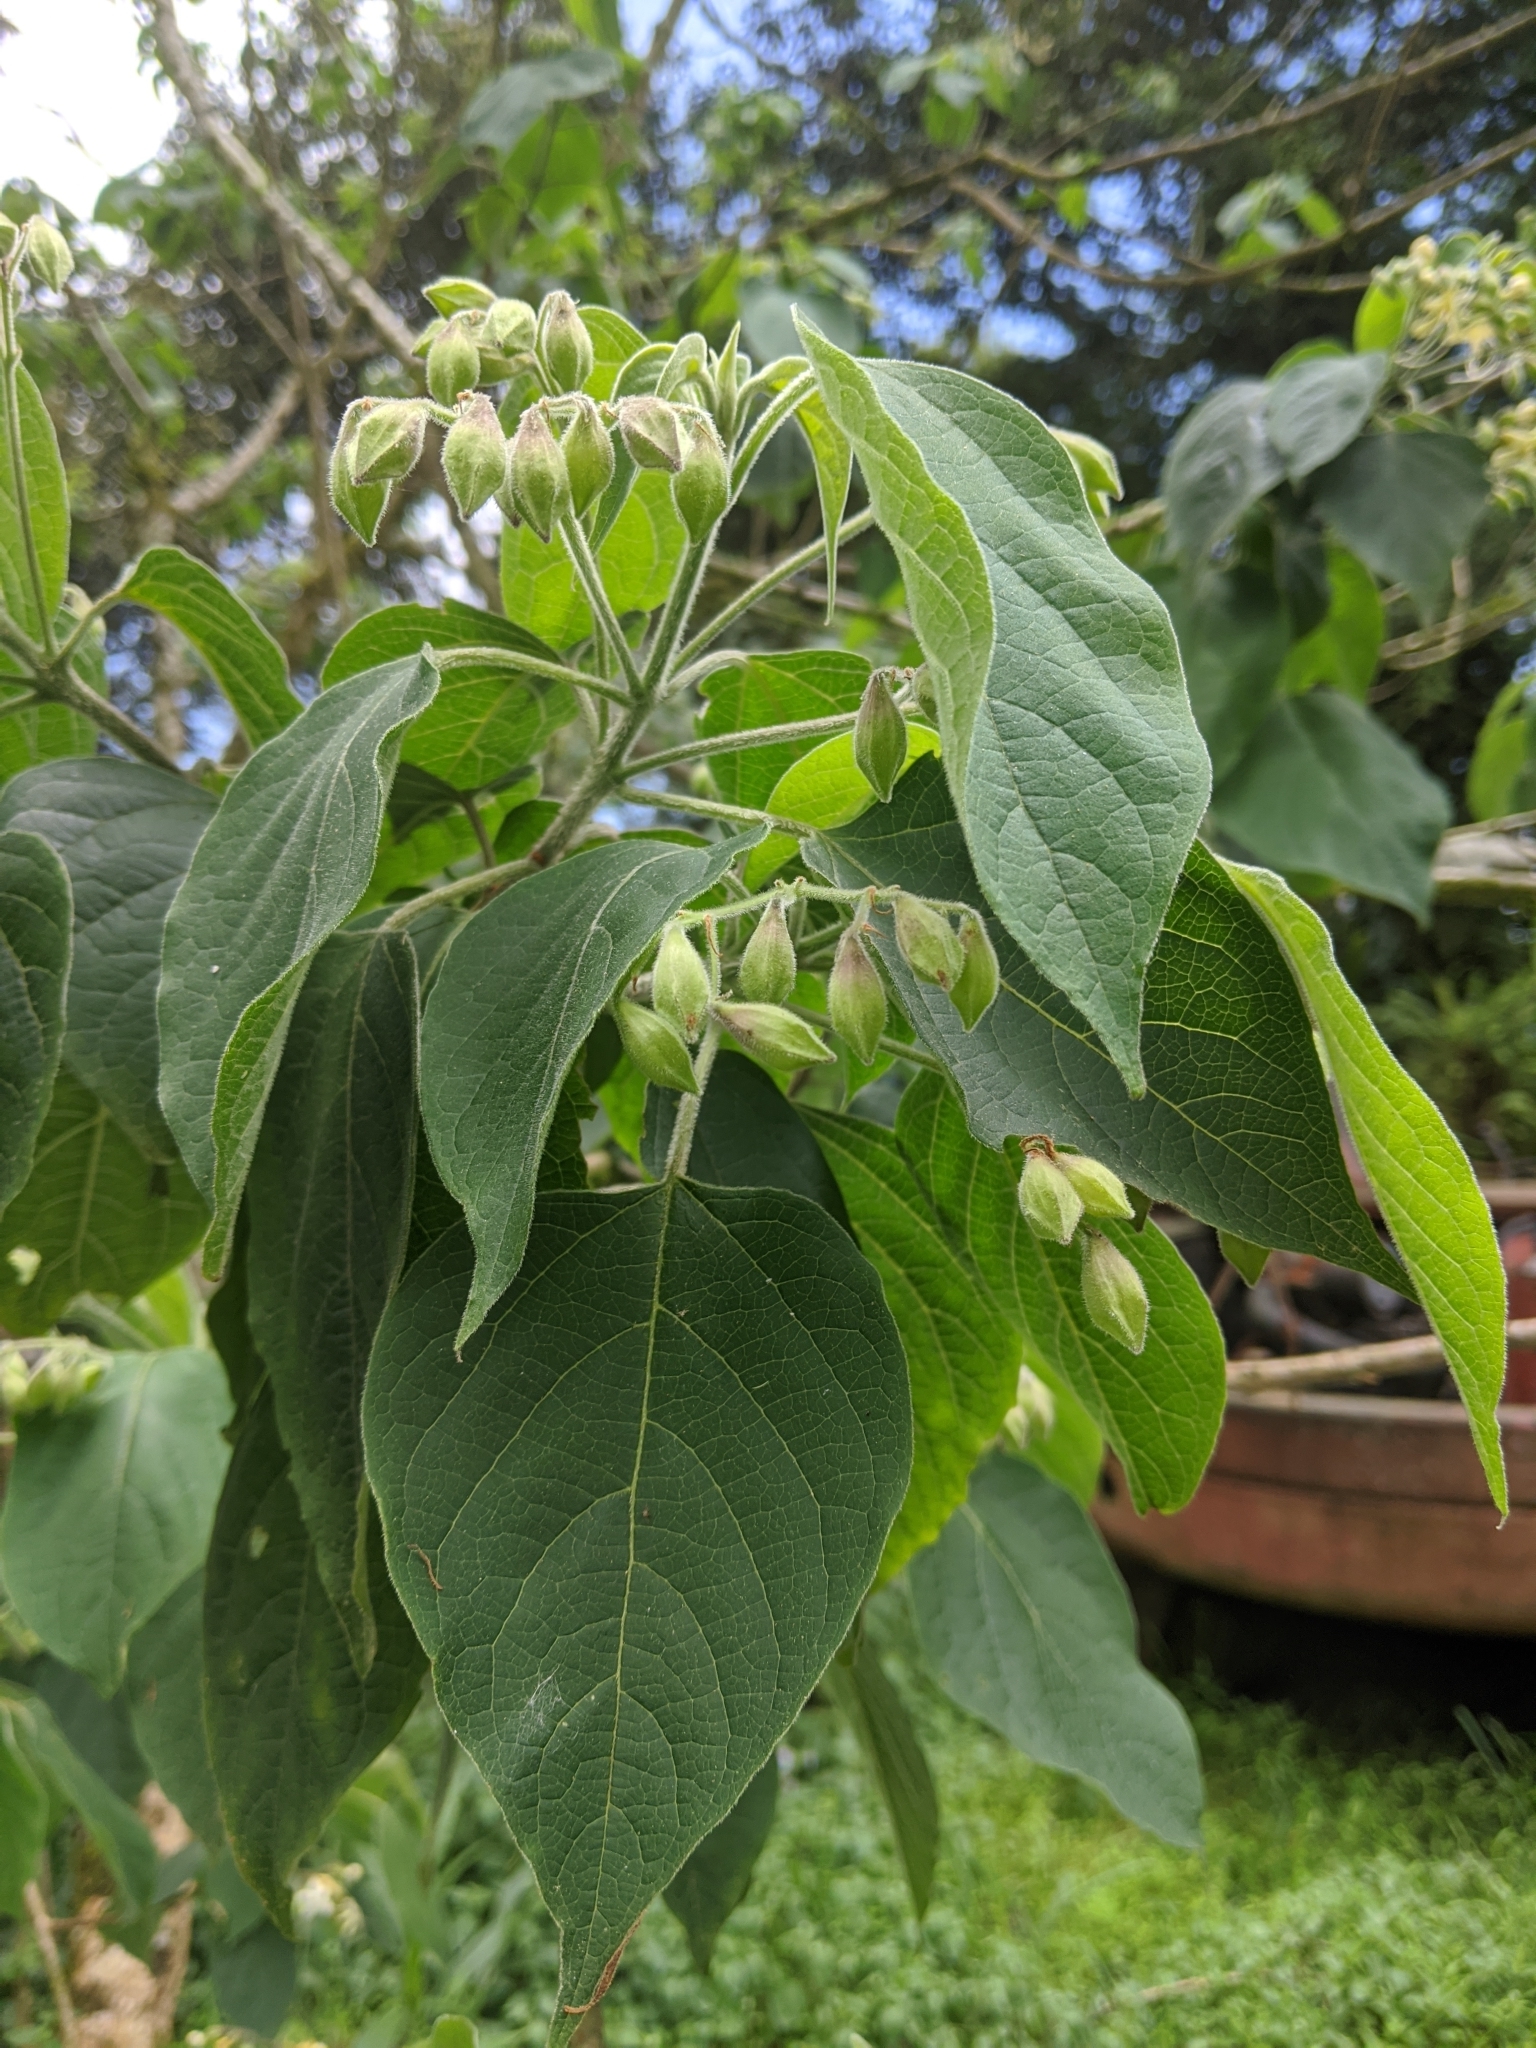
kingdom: Plantae
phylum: Tracheophyta
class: Magnoliopsida
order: Lamiales
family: Lamiaceae
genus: Clerodendrum
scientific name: Clerodendrum trichotomum
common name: Harlequin glorybower
